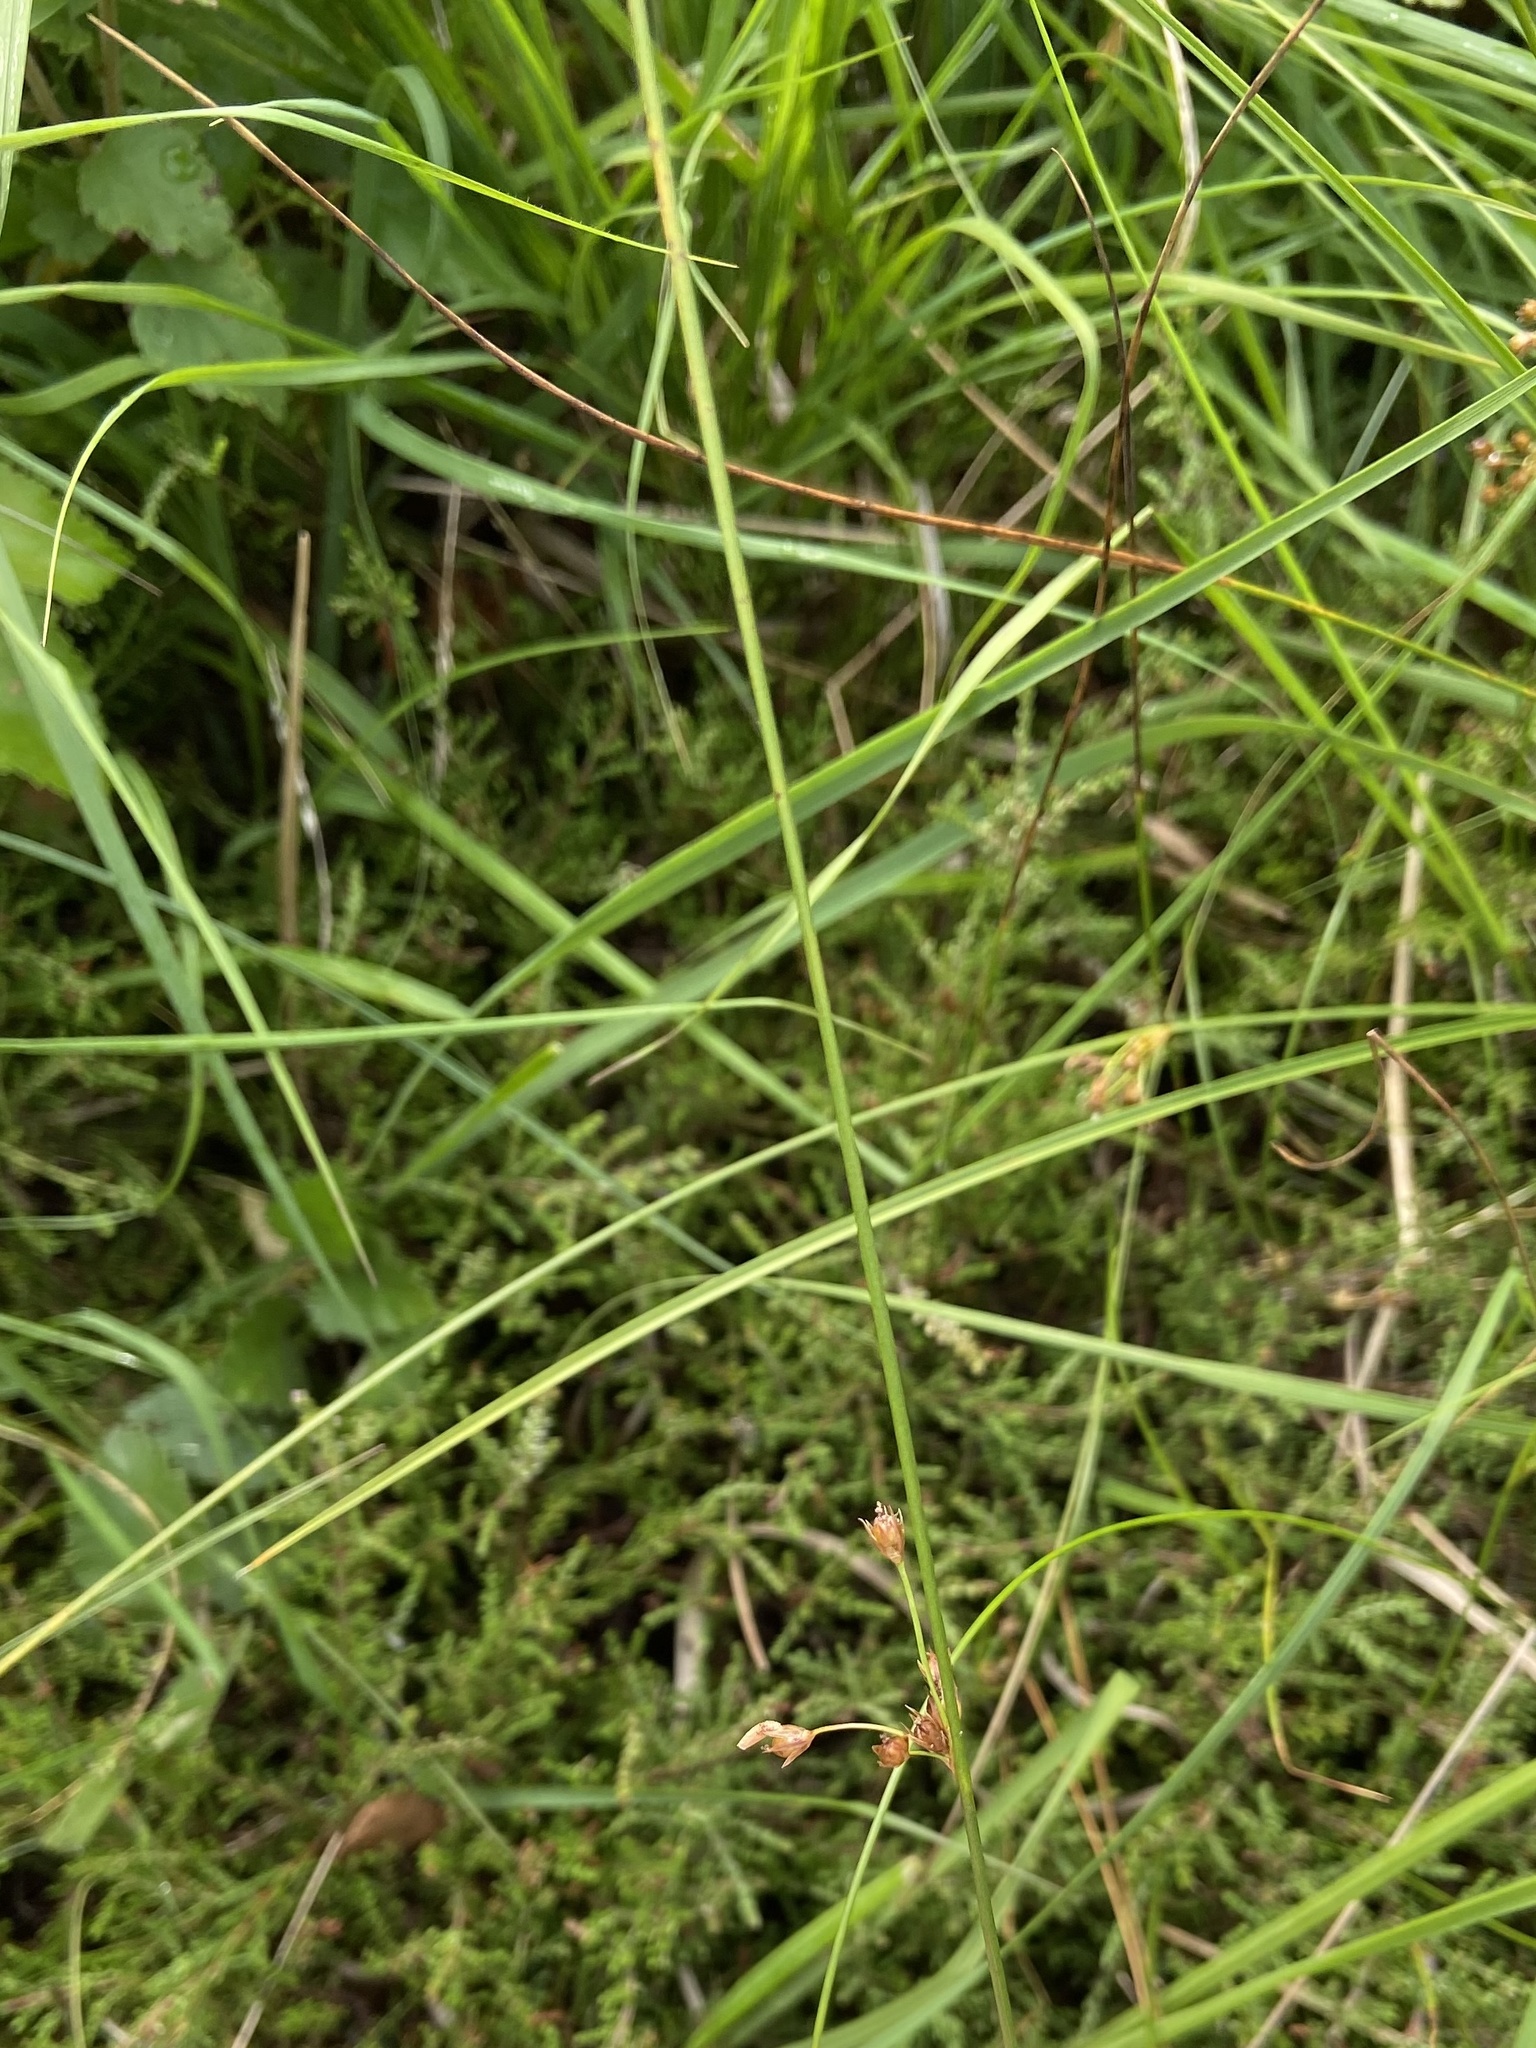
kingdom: Plantae
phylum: Tracheophyta
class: Liliopsida
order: Poales
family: Juncaceae
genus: Juncus
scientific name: Juncus filiformis
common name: Thread rush
